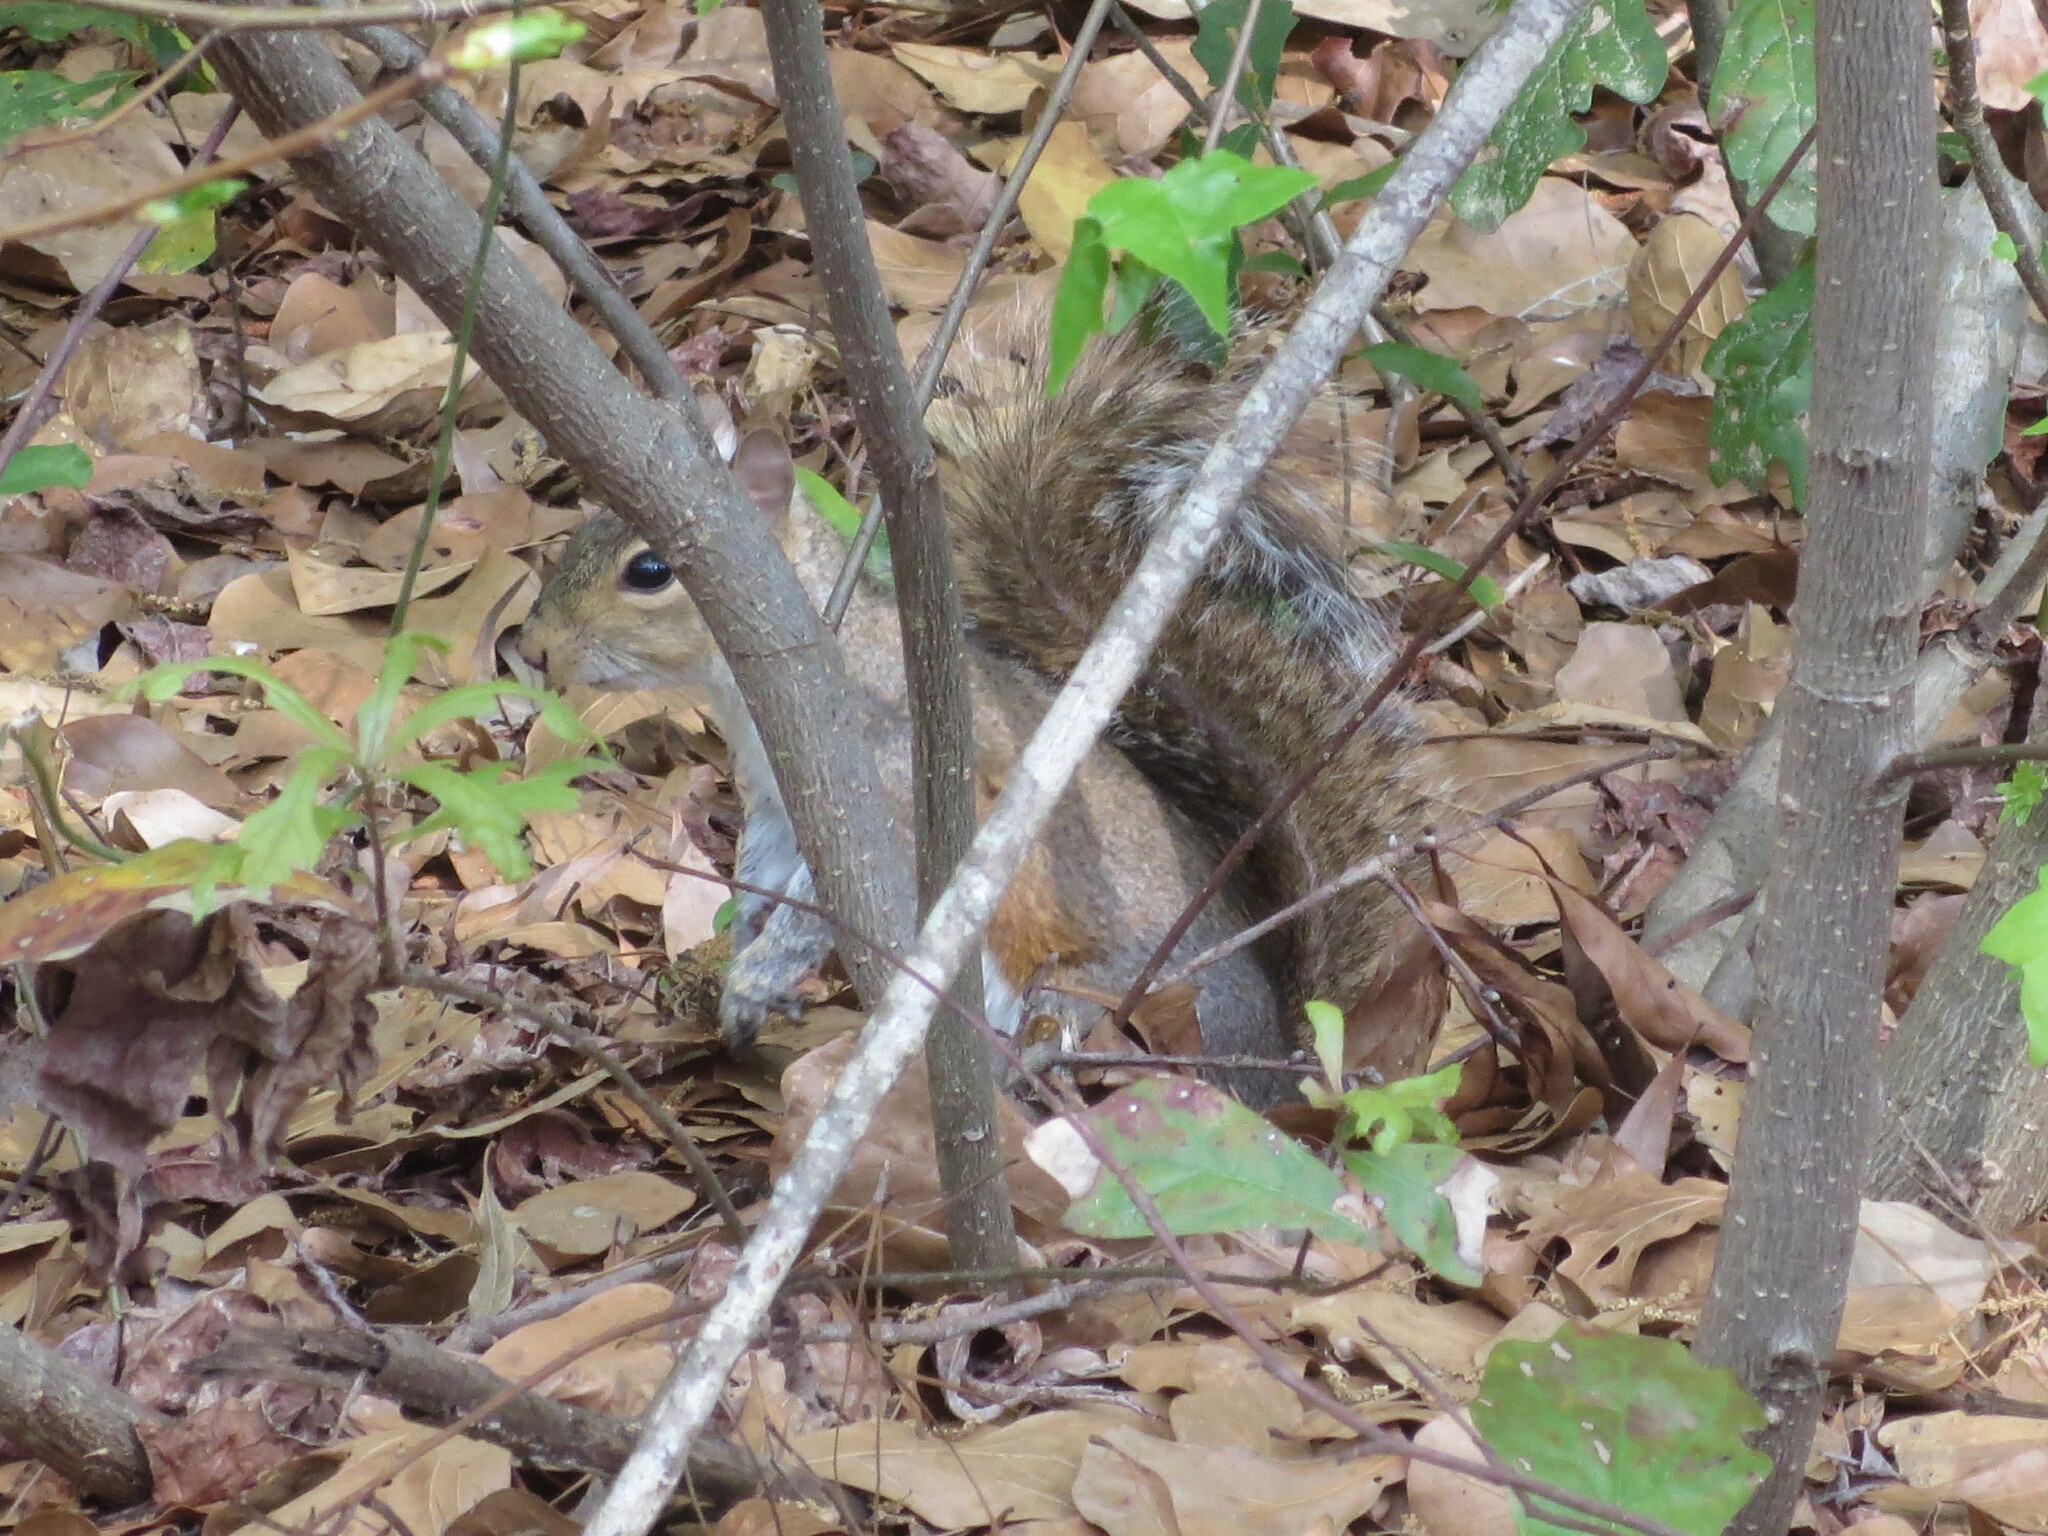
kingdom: Animalia
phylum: Chordata
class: Mammalia
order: Rodentia
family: Sciuridae
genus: Sciurus
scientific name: Sciurus carolinensis
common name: Eastern gray squirrel
